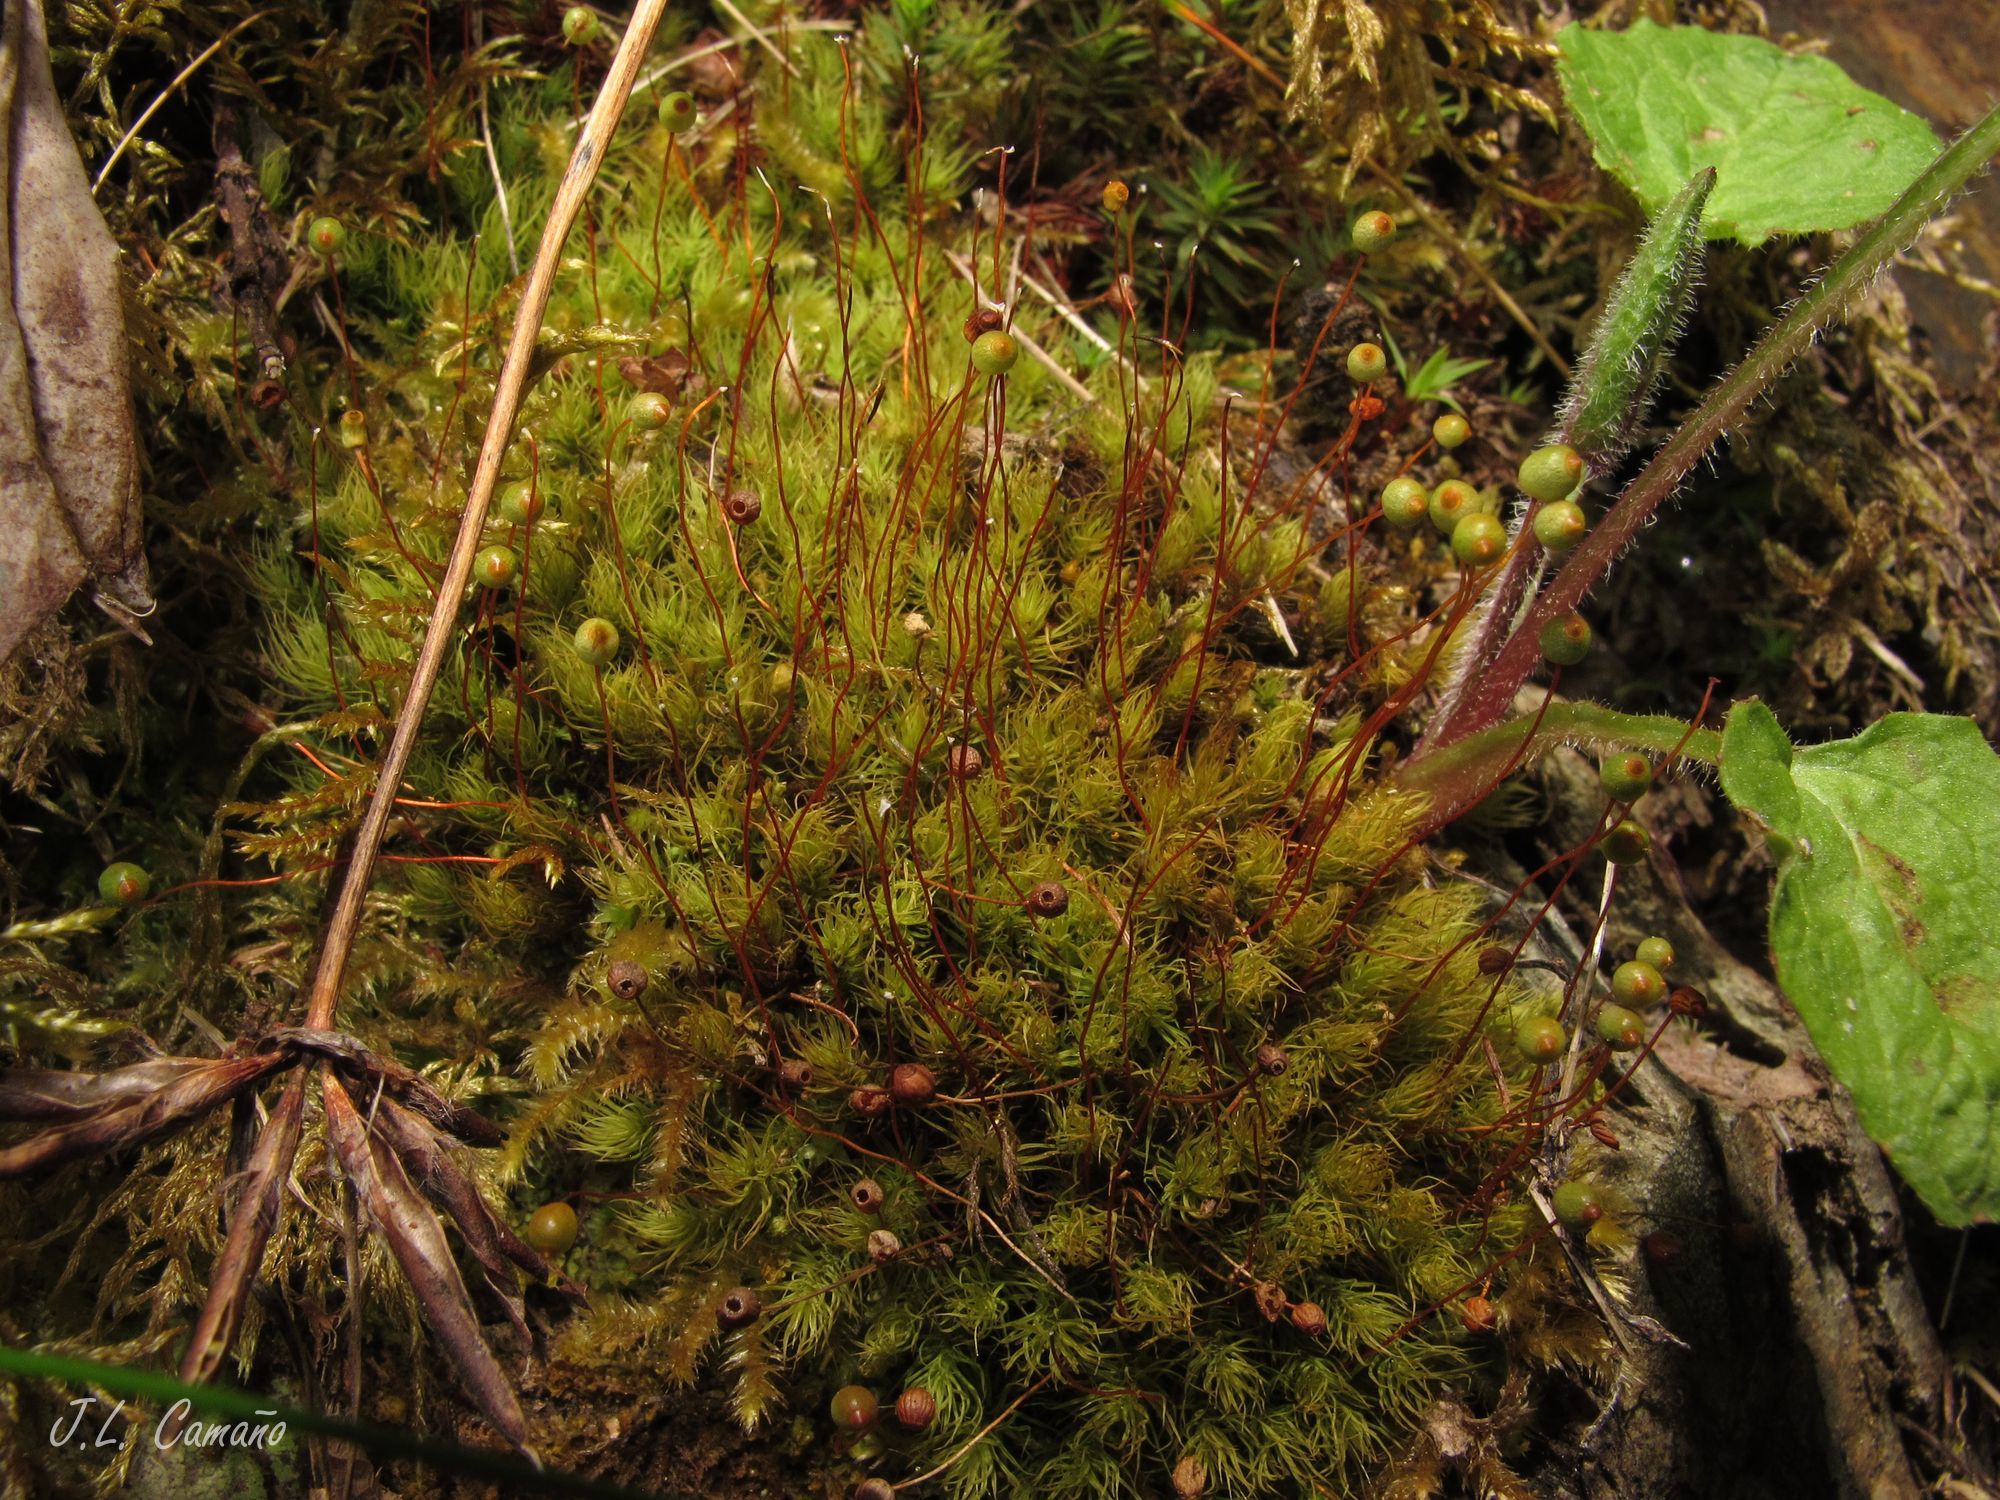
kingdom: Plantae
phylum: Bryophyta
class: Bryopsida
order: Bartramiales
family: Bartramiaceae
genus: Bartramia
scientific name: Bartramia ithyphylla
